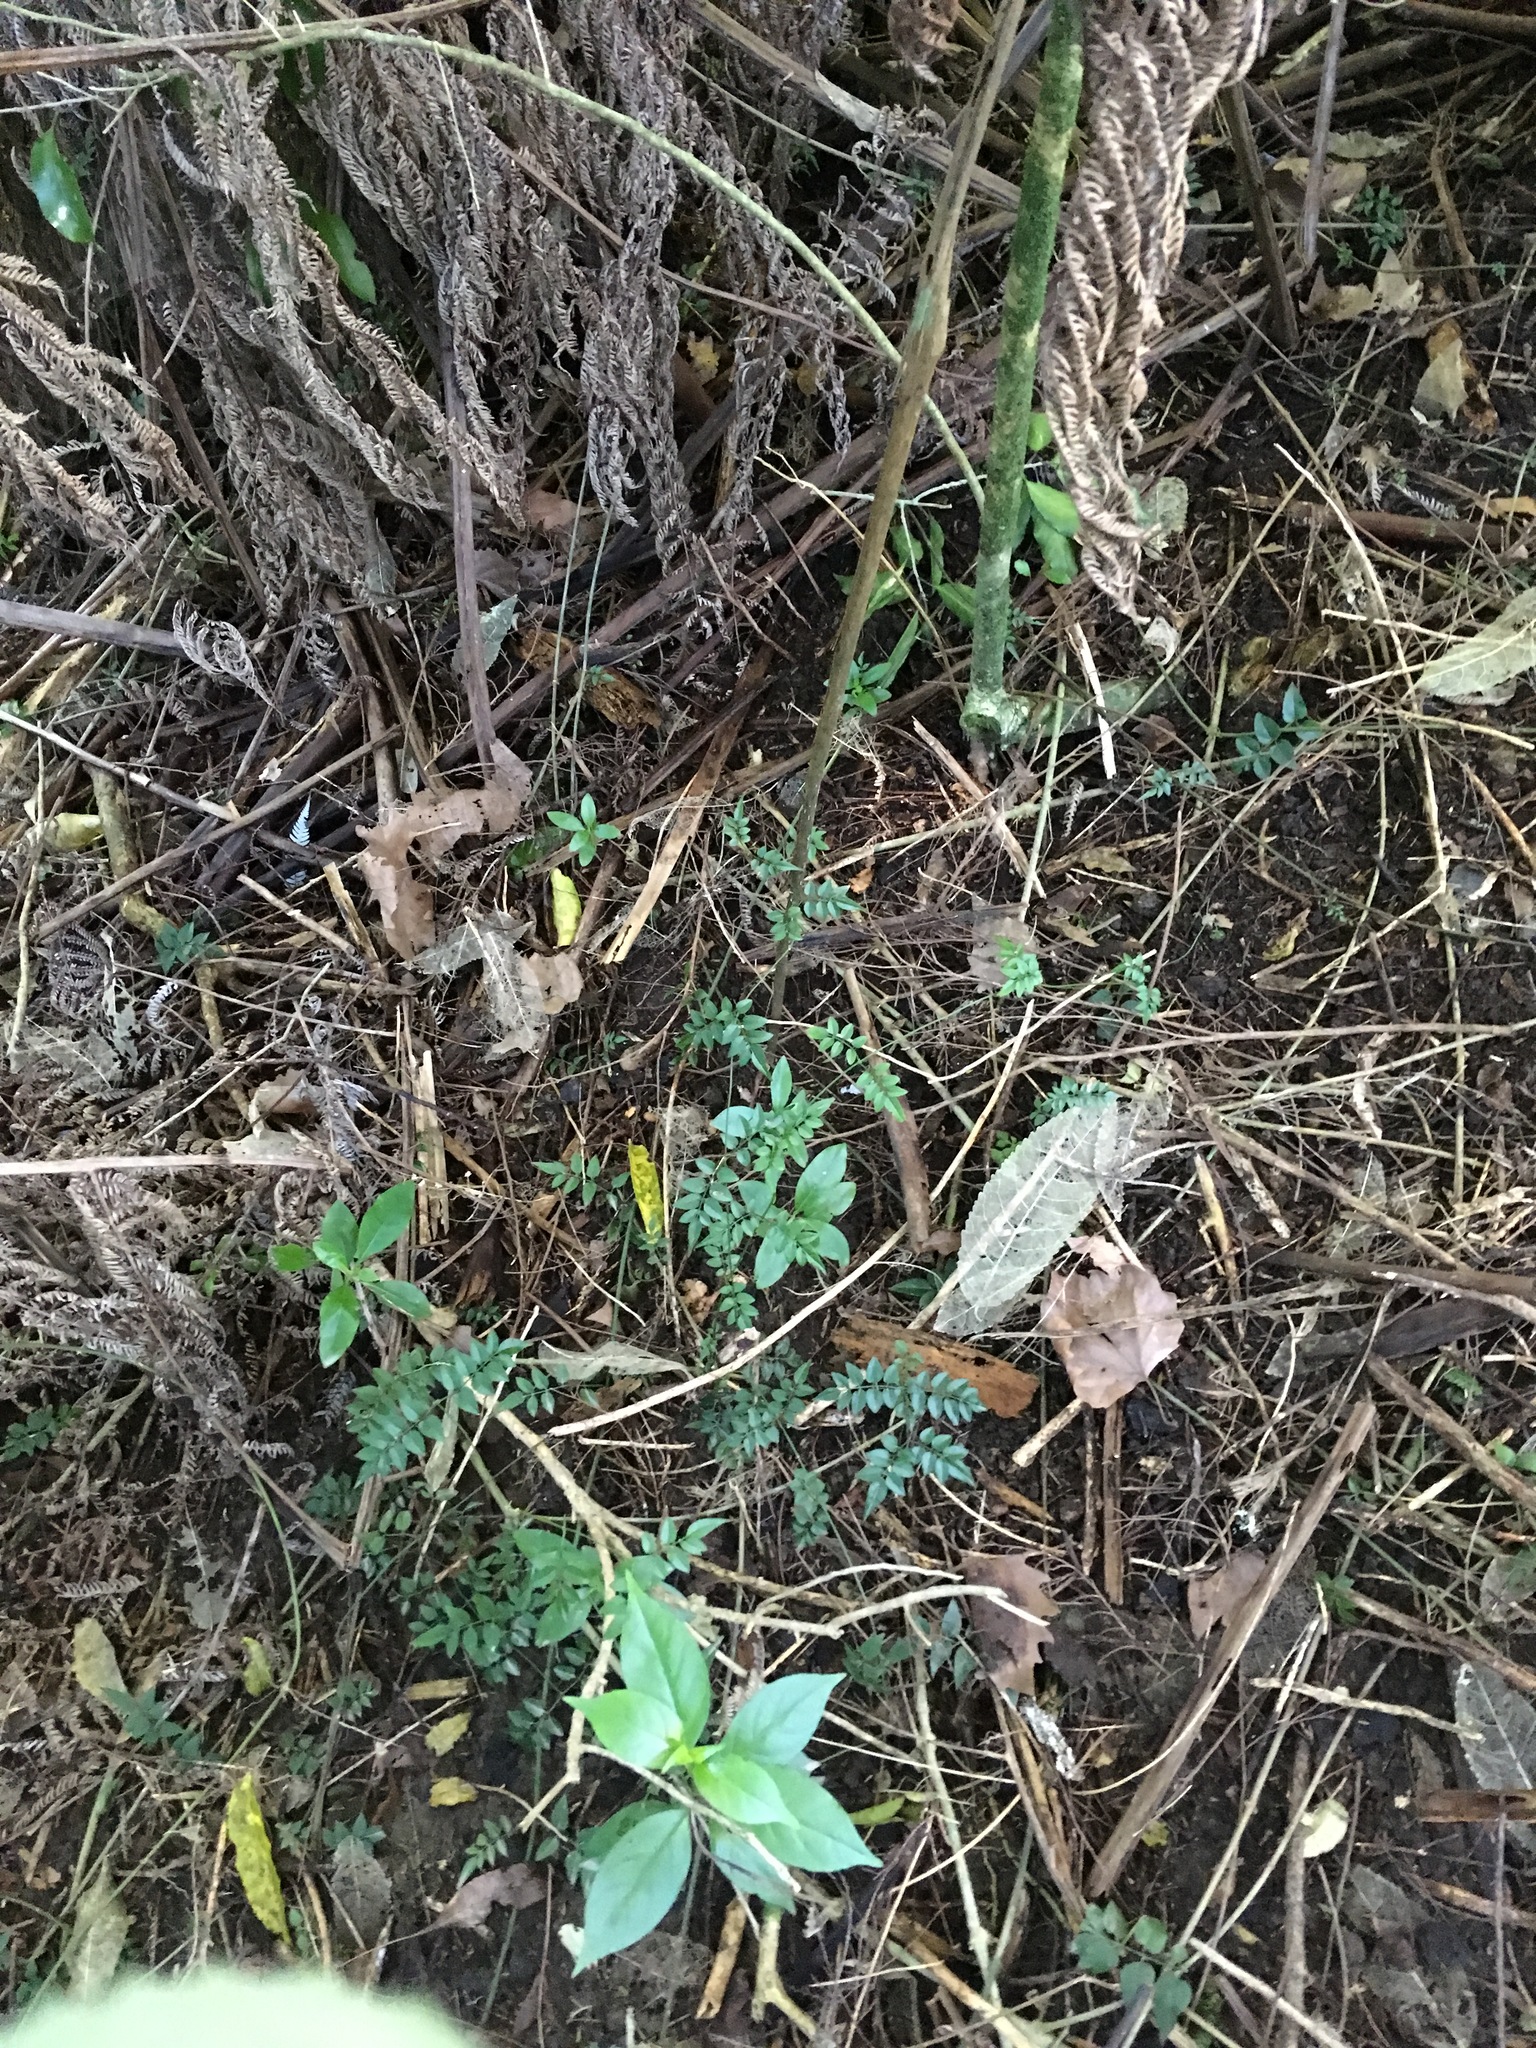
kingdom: Plantae
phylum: Tracheophyta
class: Magnoliopsida
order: Lamiales
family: Oleaceae
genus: Jasminum
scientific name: Jasminum polyanthum
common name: Pink jasmine
